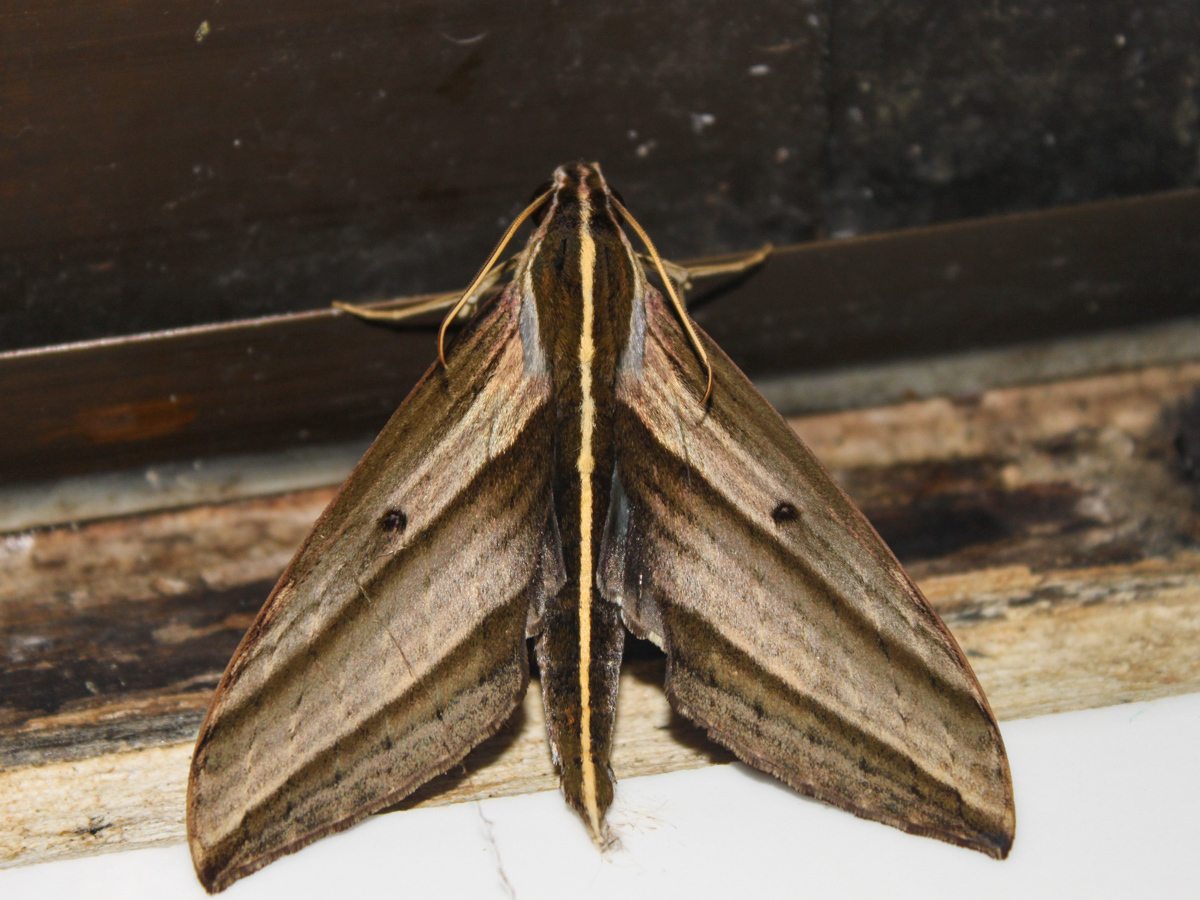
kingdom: Animalia
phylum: Arthropoda
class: Insecta
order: Lepidoptera
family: Sphingidae
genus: Elibia
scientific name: Elibia dolichus
